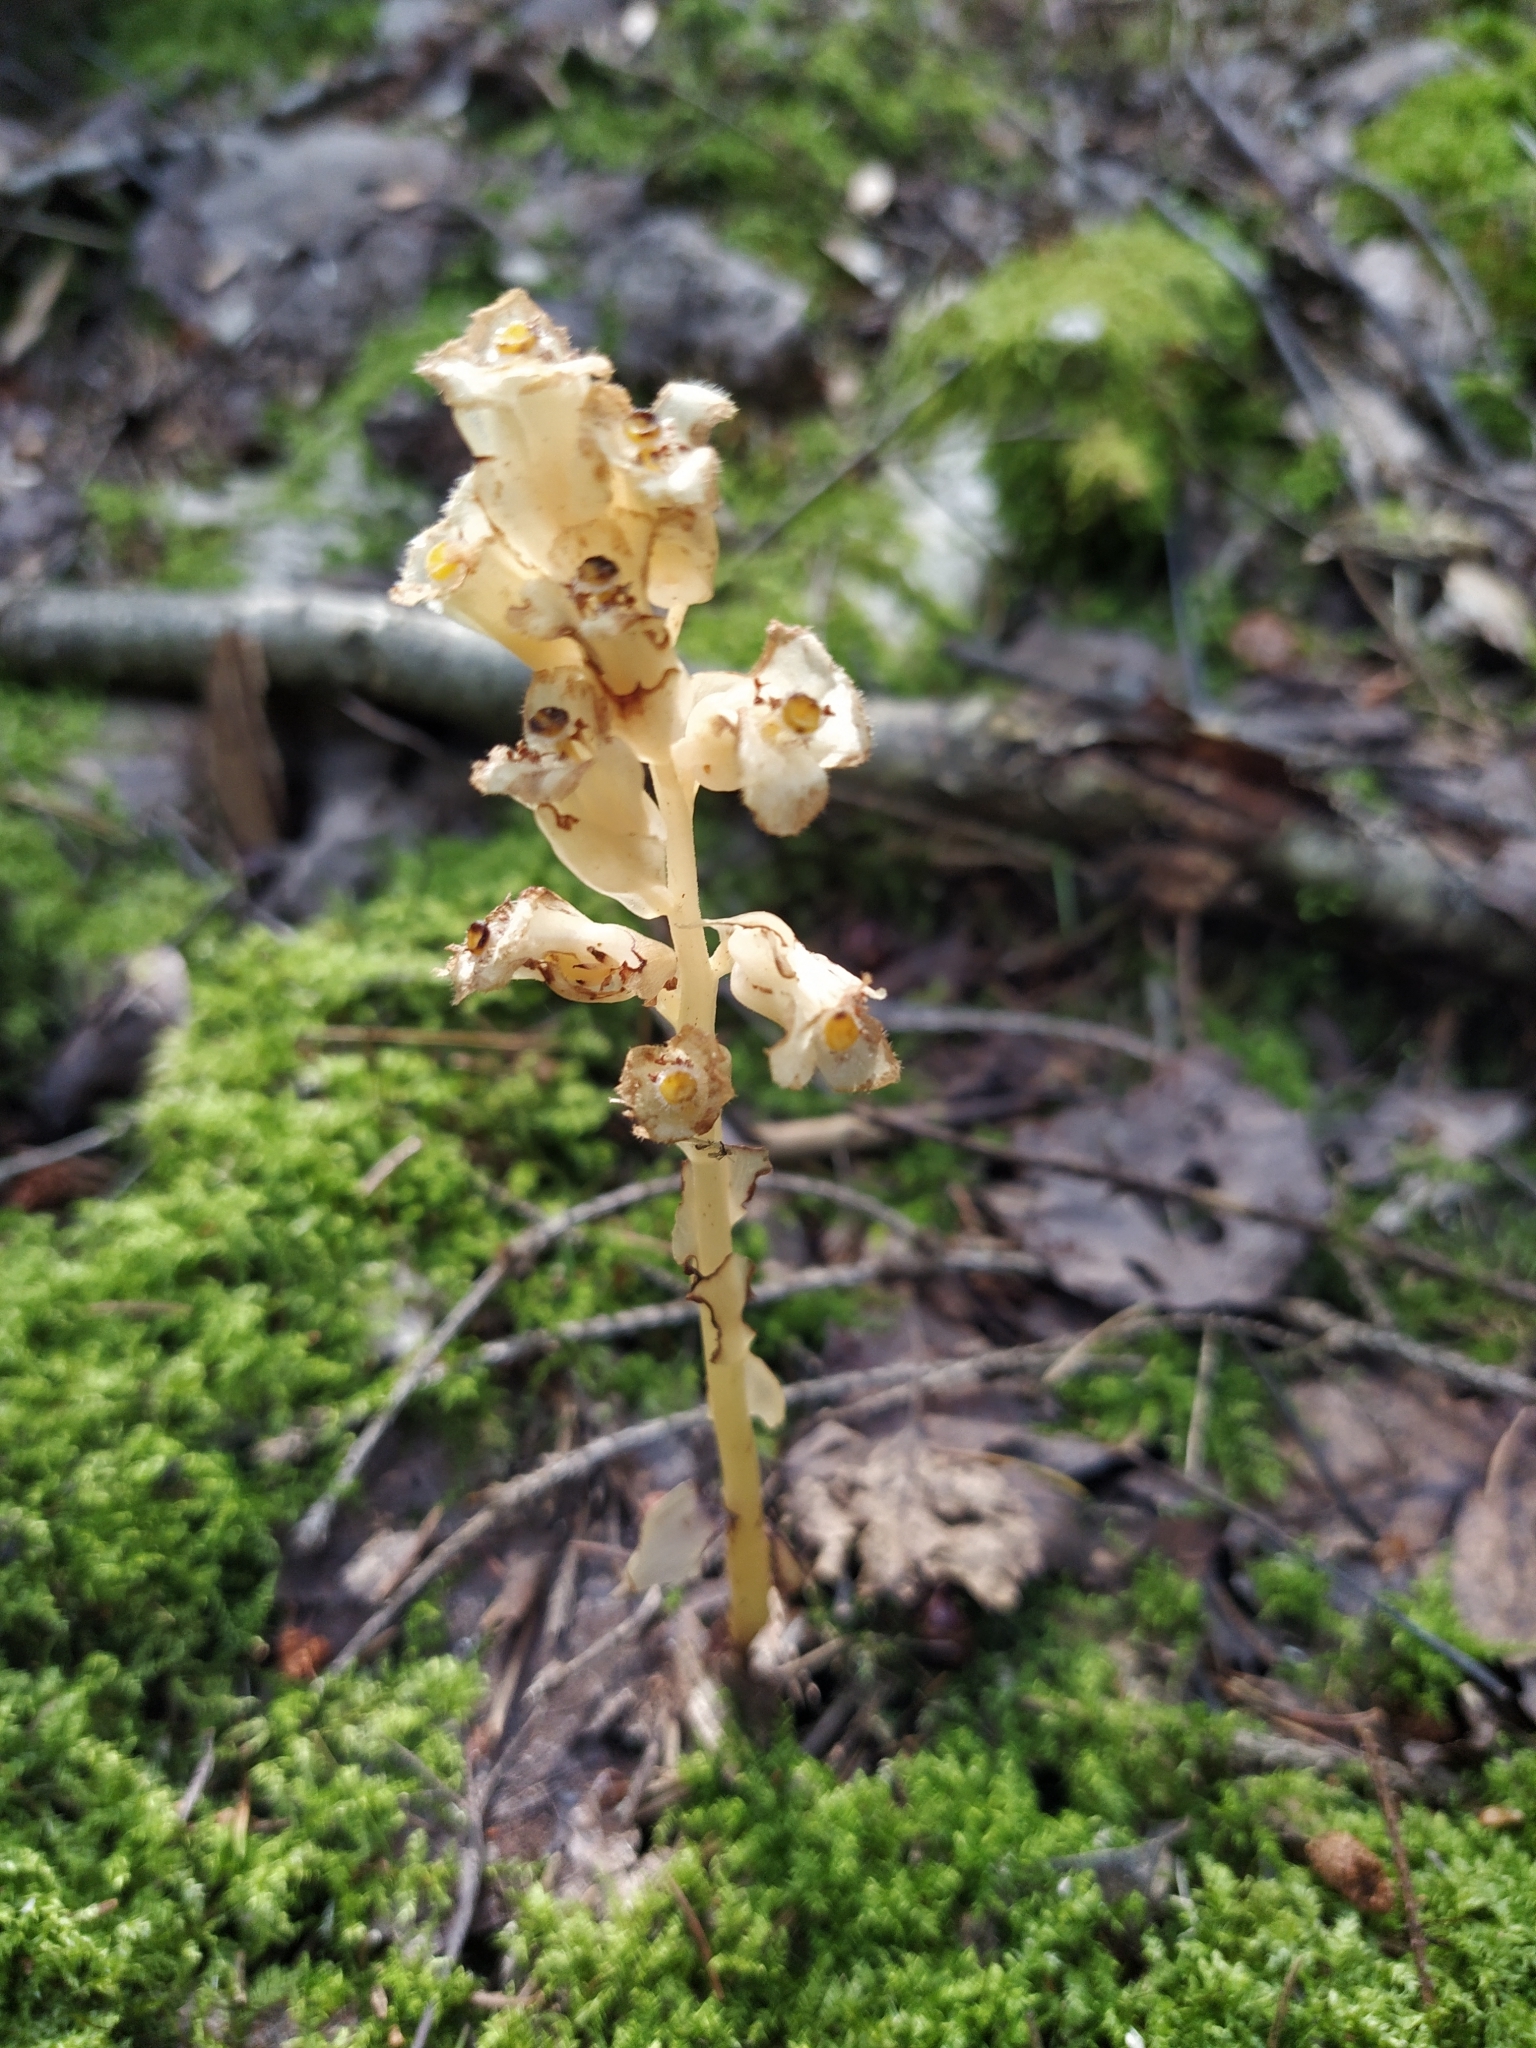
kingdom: Plantae
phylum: Tracheophyta
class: Magnoliopsida
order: Ericales
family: Ericaceae
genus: Hypopitys
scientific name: Hypopitys monotropa
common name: Yellow bird's-nest
